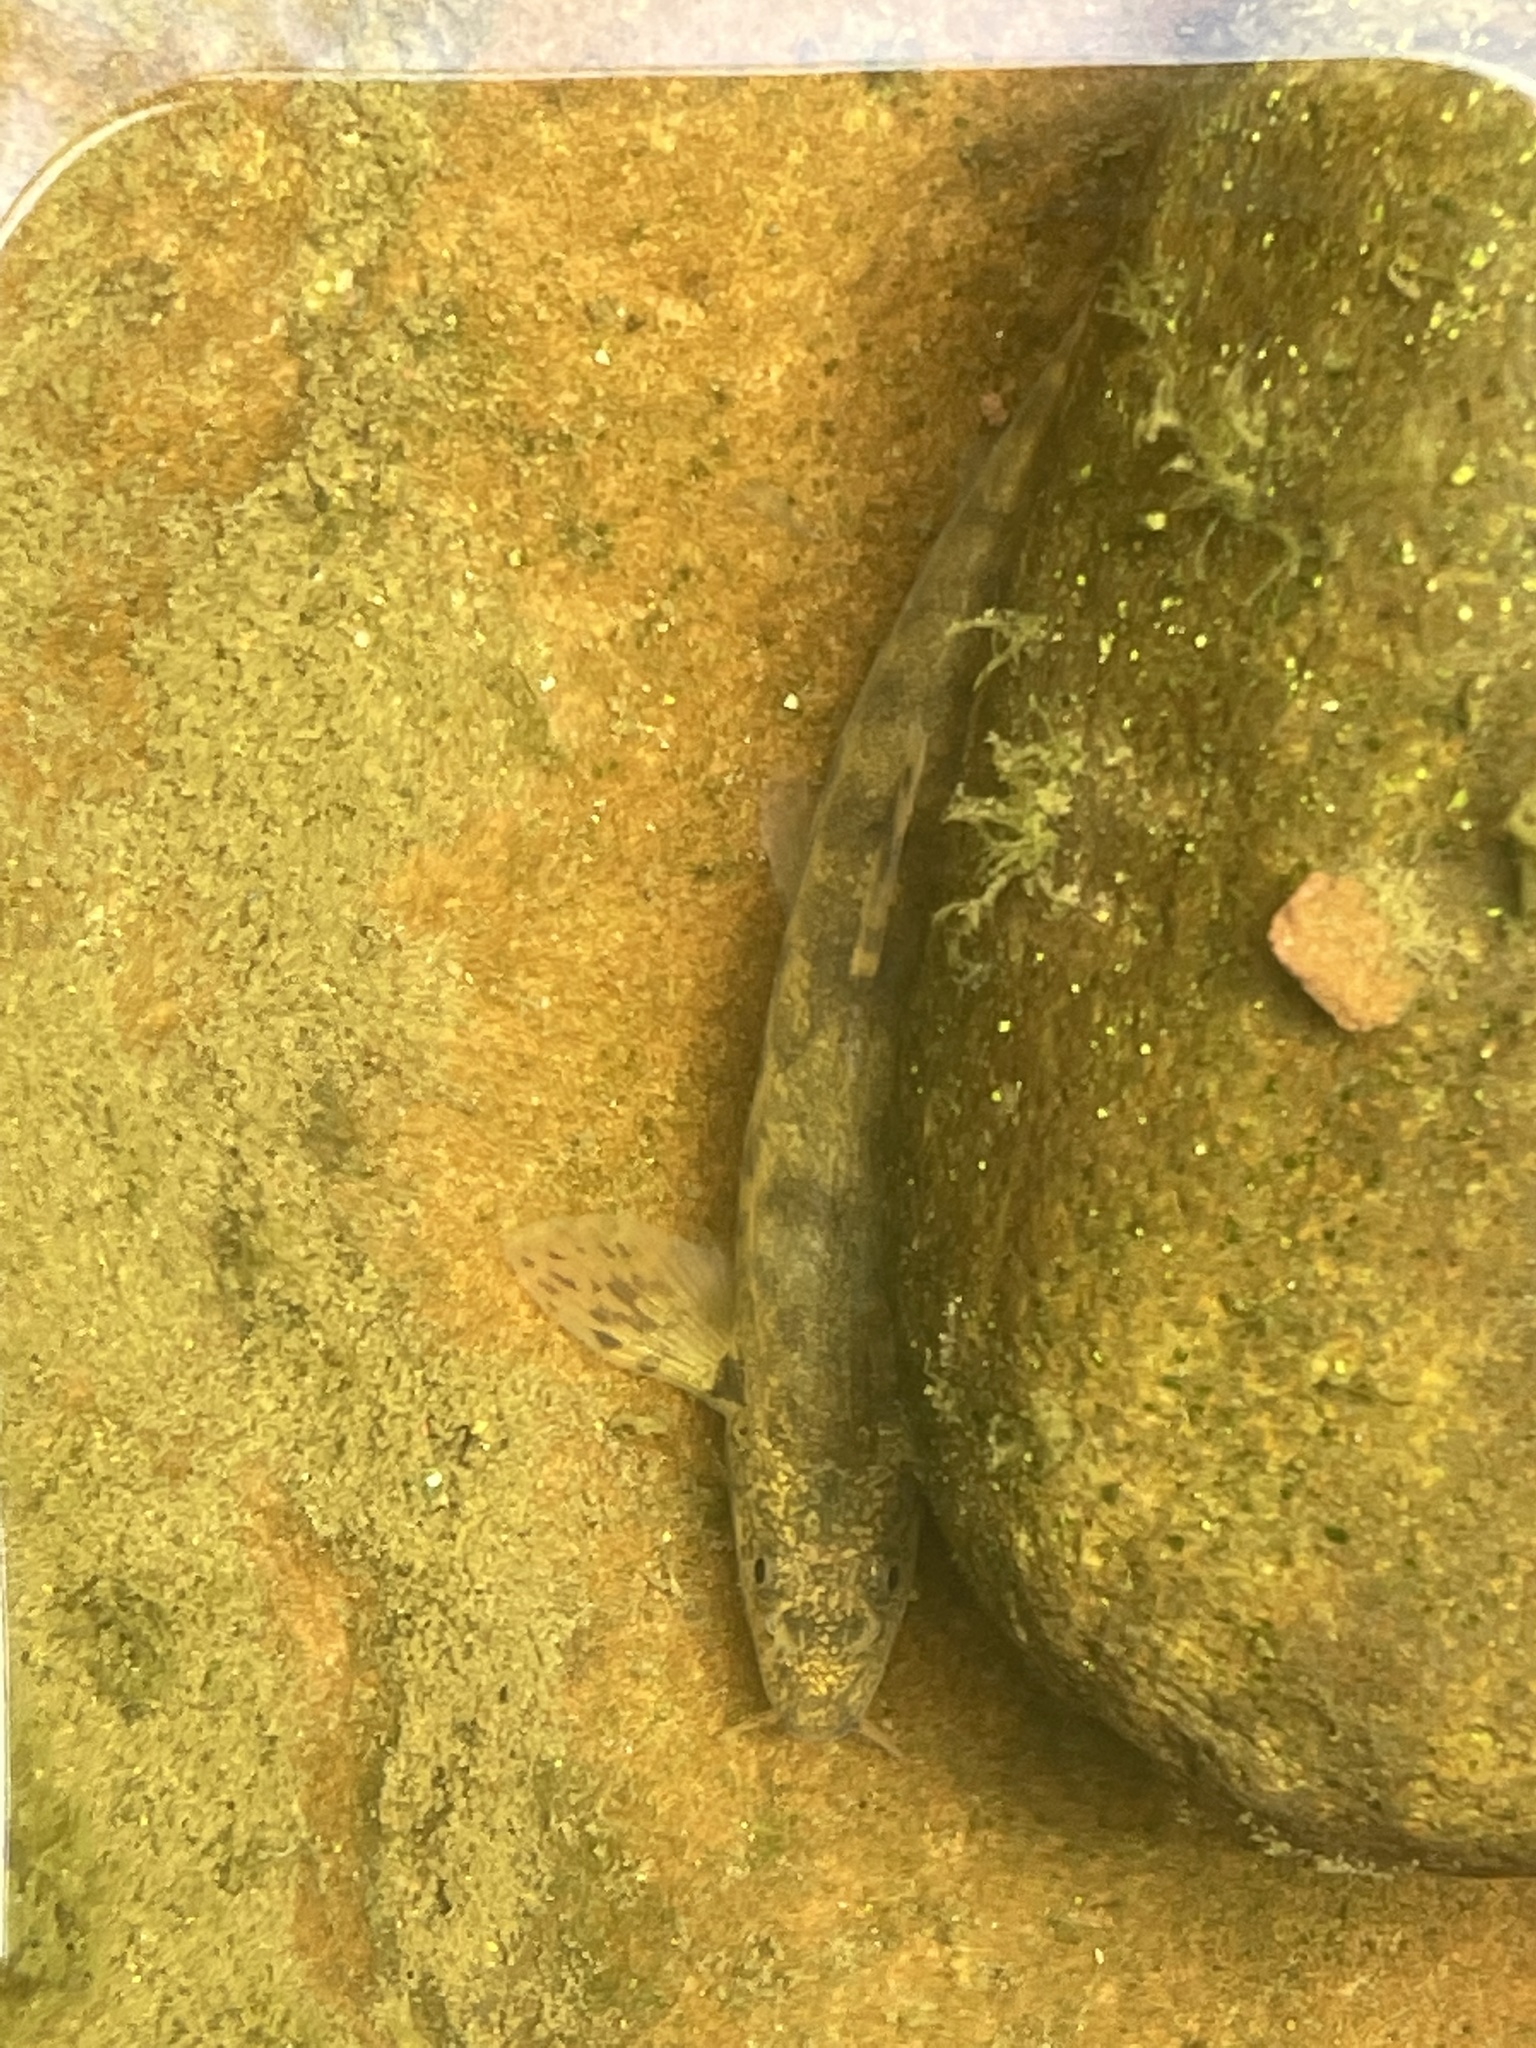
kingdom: Animalia
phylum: Chordata
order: Cypriniformes
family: Nemacheilidae
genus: Barbatula
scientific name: Barbatula barbatula
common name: Stone loach
